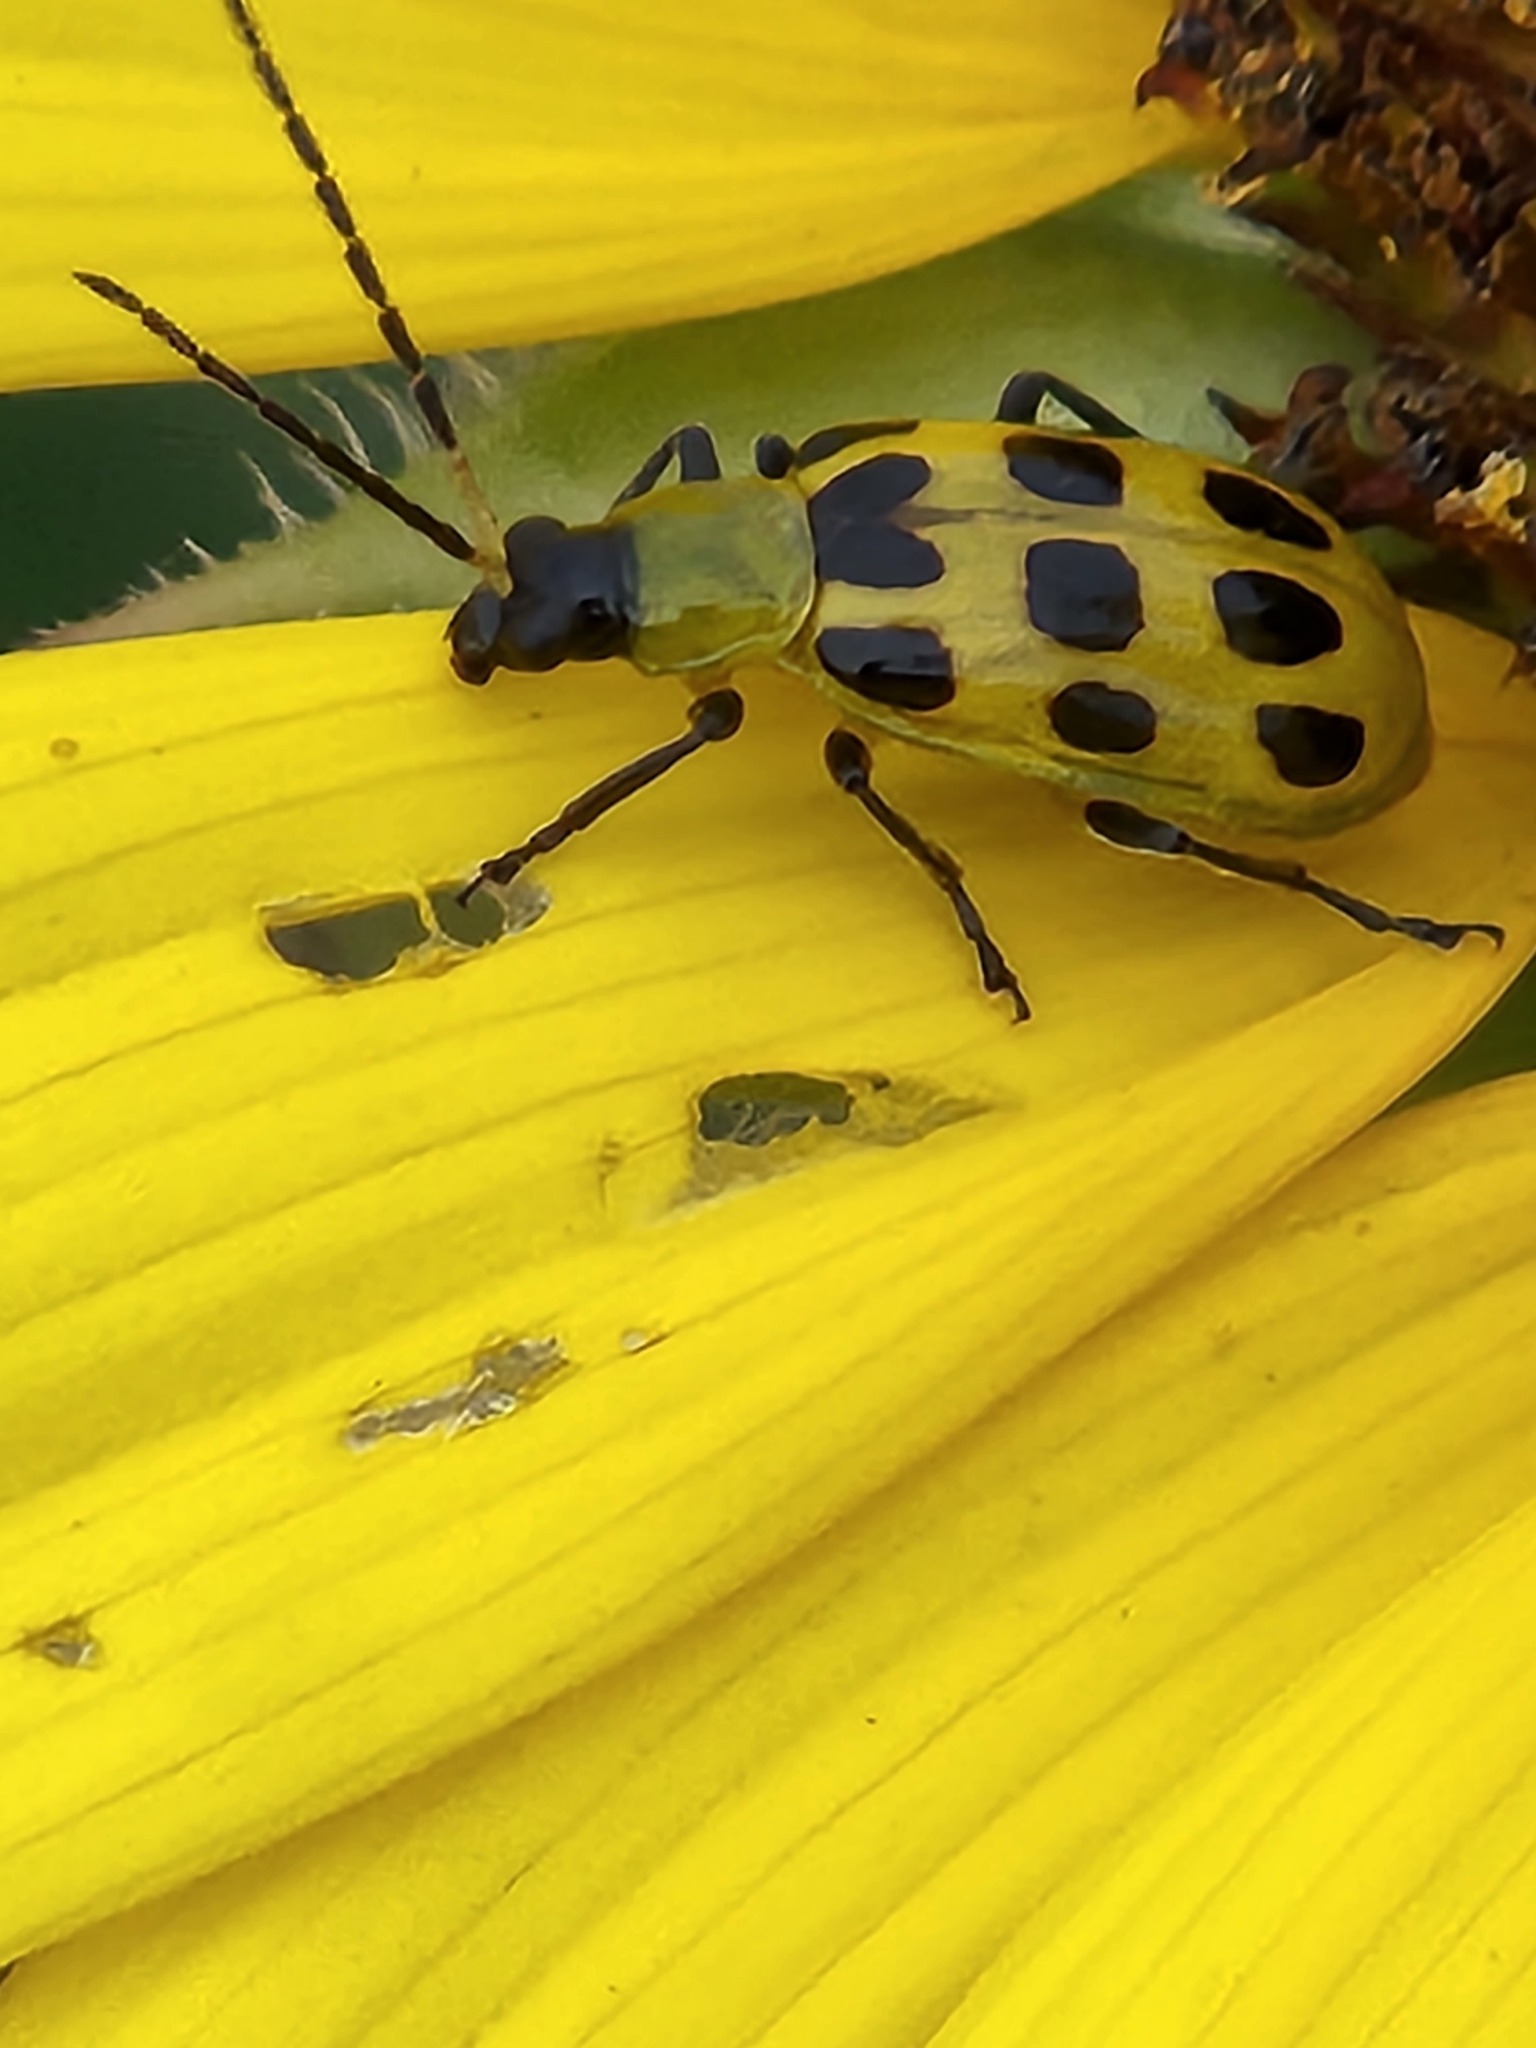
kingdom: Animalia
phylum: Arthropoda
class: Insecta
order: Coleoptera
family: Chrysomelidae
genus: Diabrotica
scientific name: Diabrotica undecimpunctata
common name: Spotted cucumber beetle
